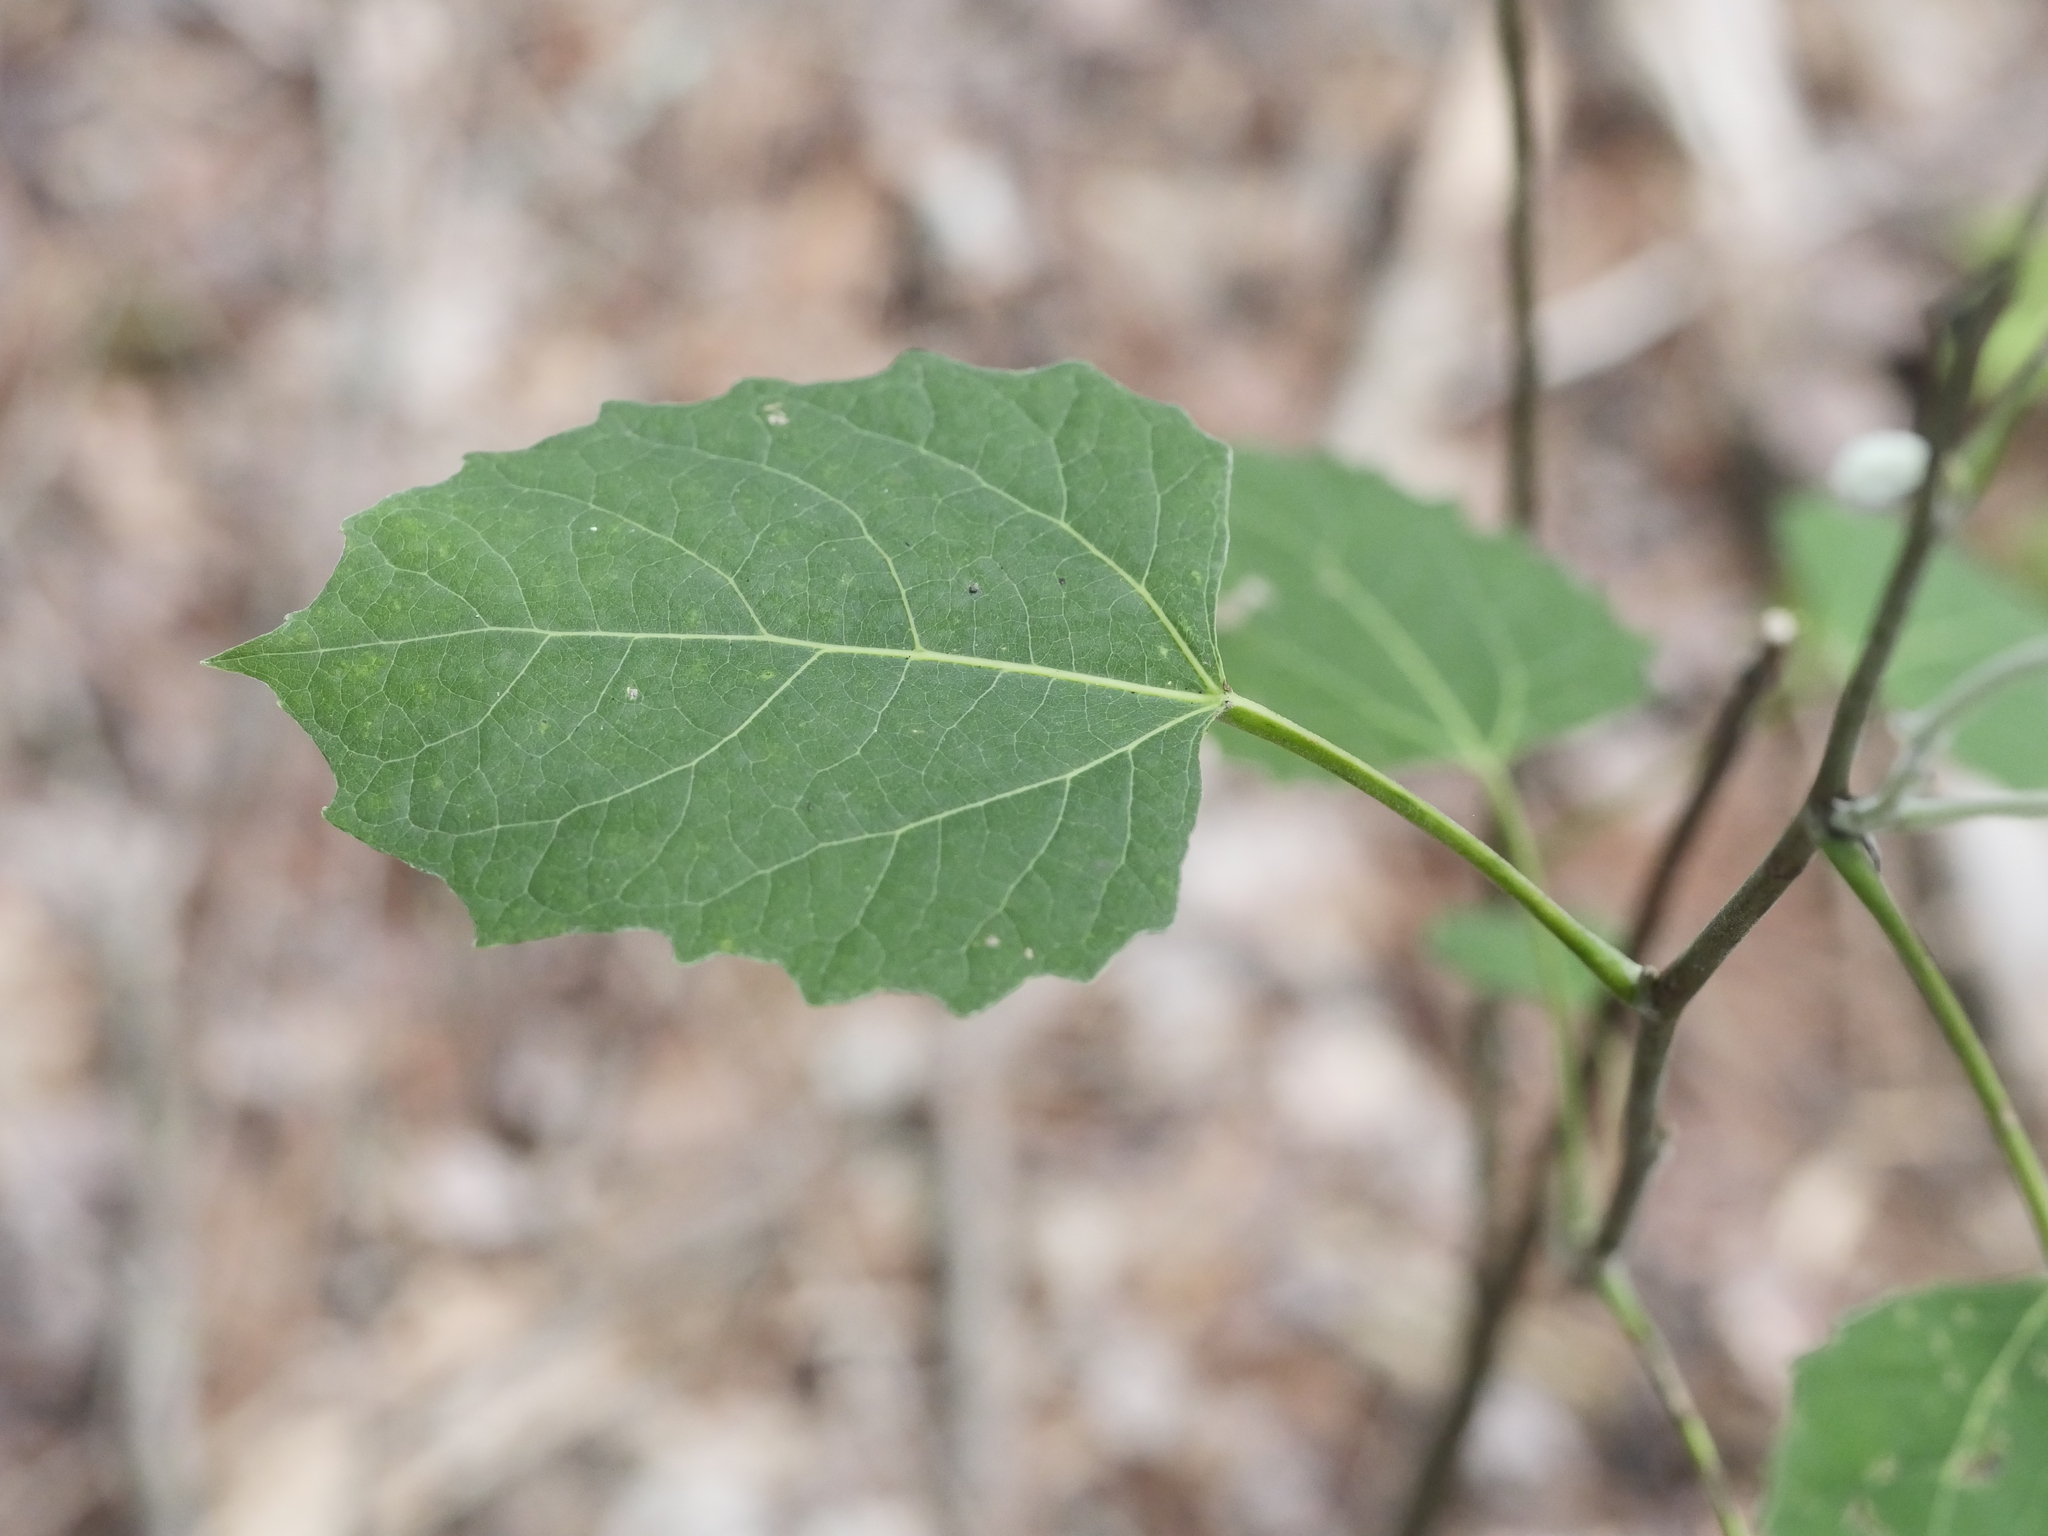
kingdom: Plantae
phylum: Tracheophyta
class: Magnoliopsida
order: Malpighiales
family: Salicaceae
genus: Populus
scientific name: Populus grandidentata
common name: Bigtooth aspen
